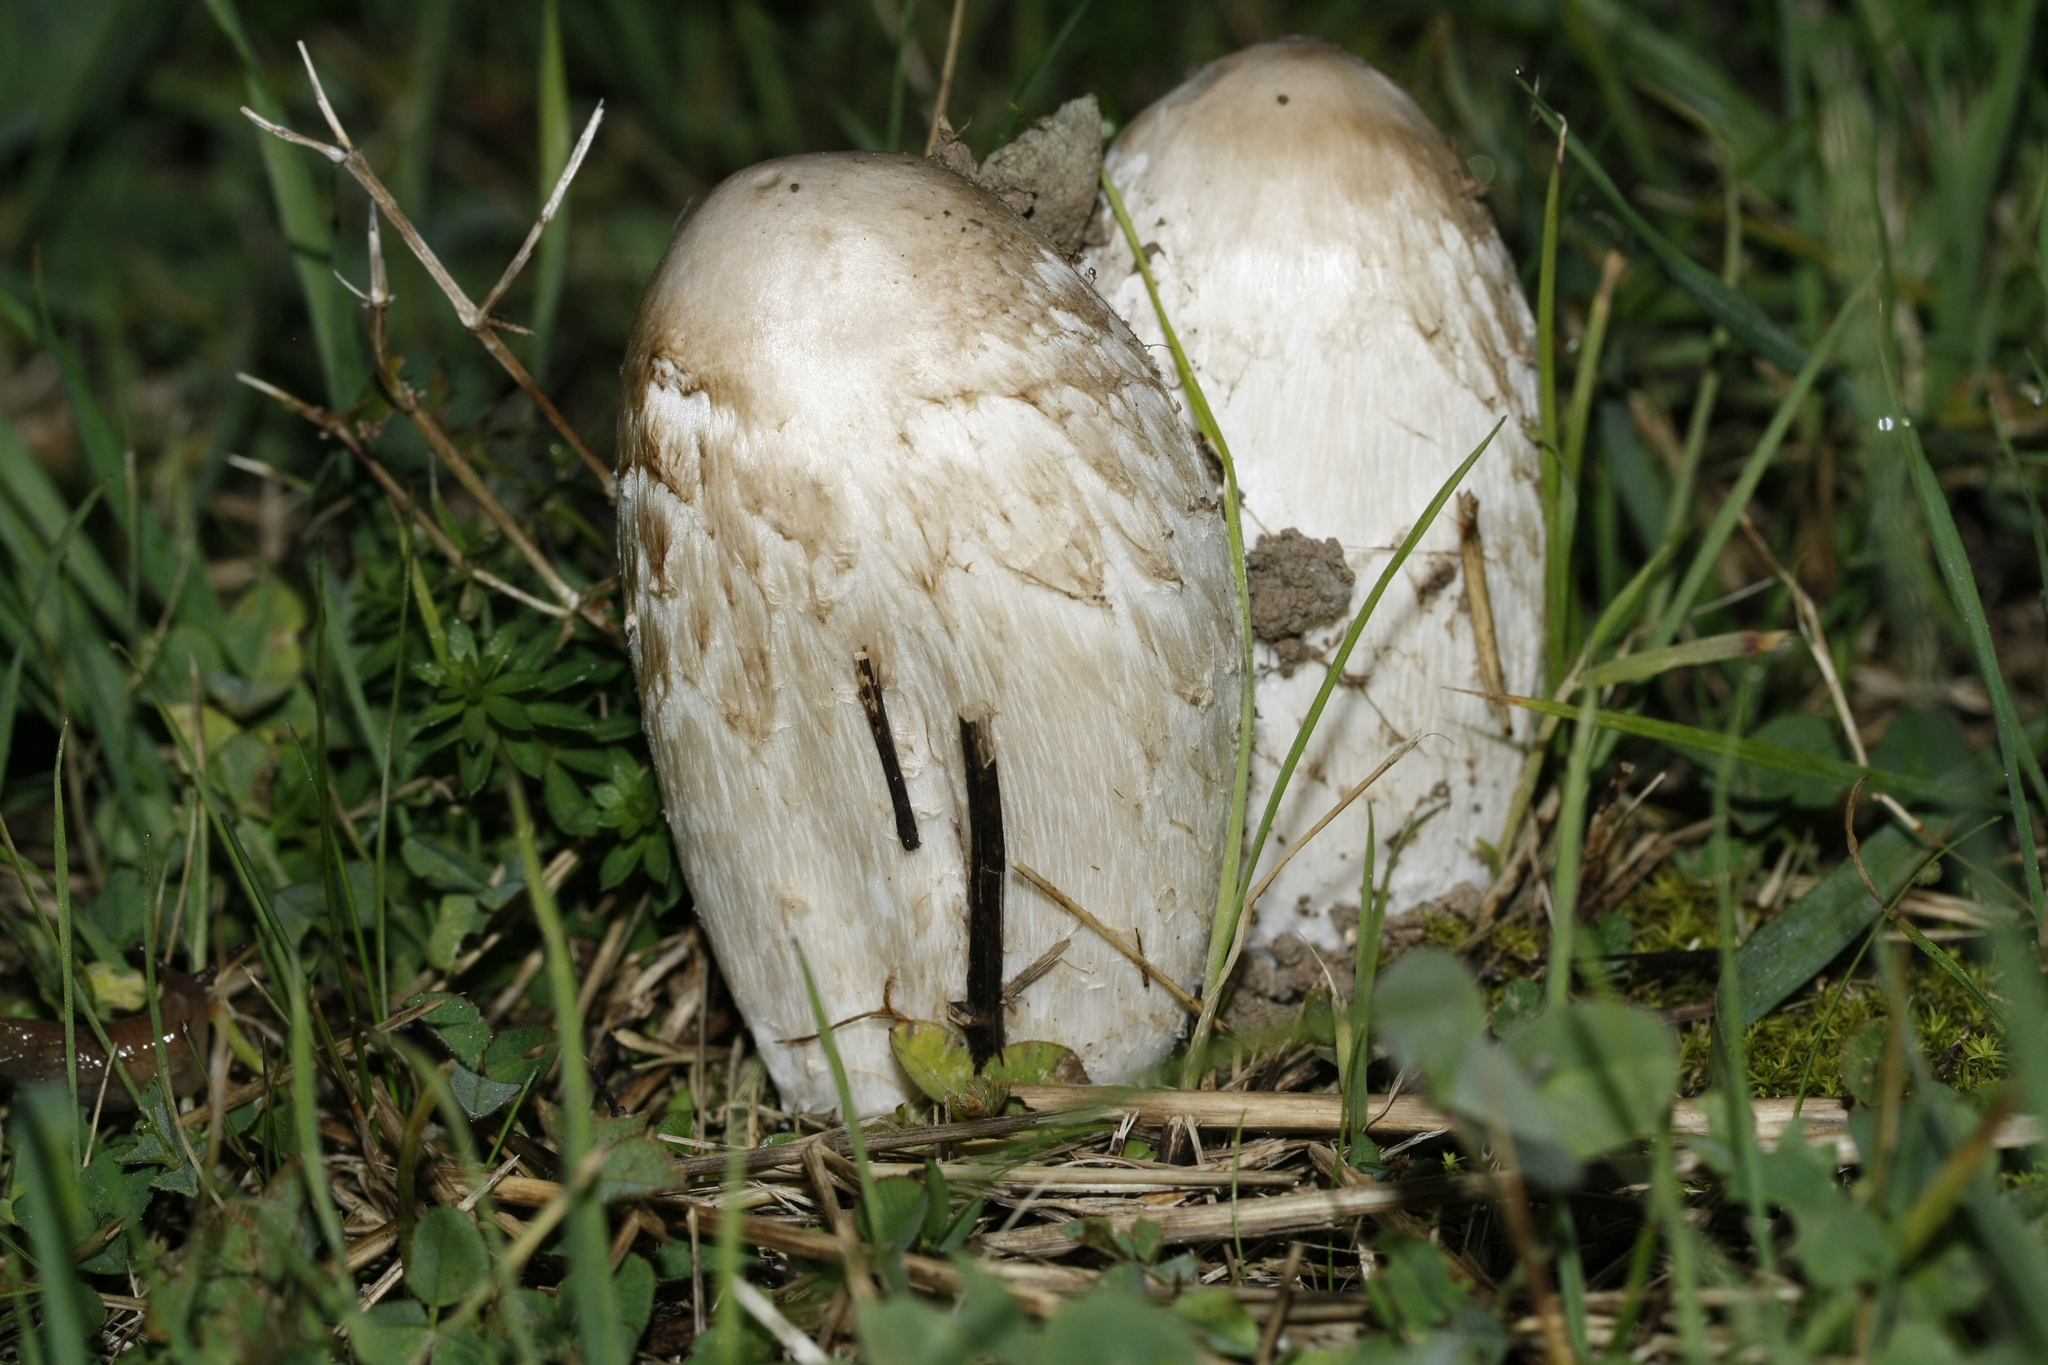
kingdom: Fungi
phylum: Basidiomycota
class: Agaricomycetes
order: Agaricales
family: Agaricaceae
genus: Coprinus
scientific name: Coprinus comatus
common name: Lawyer's wig
